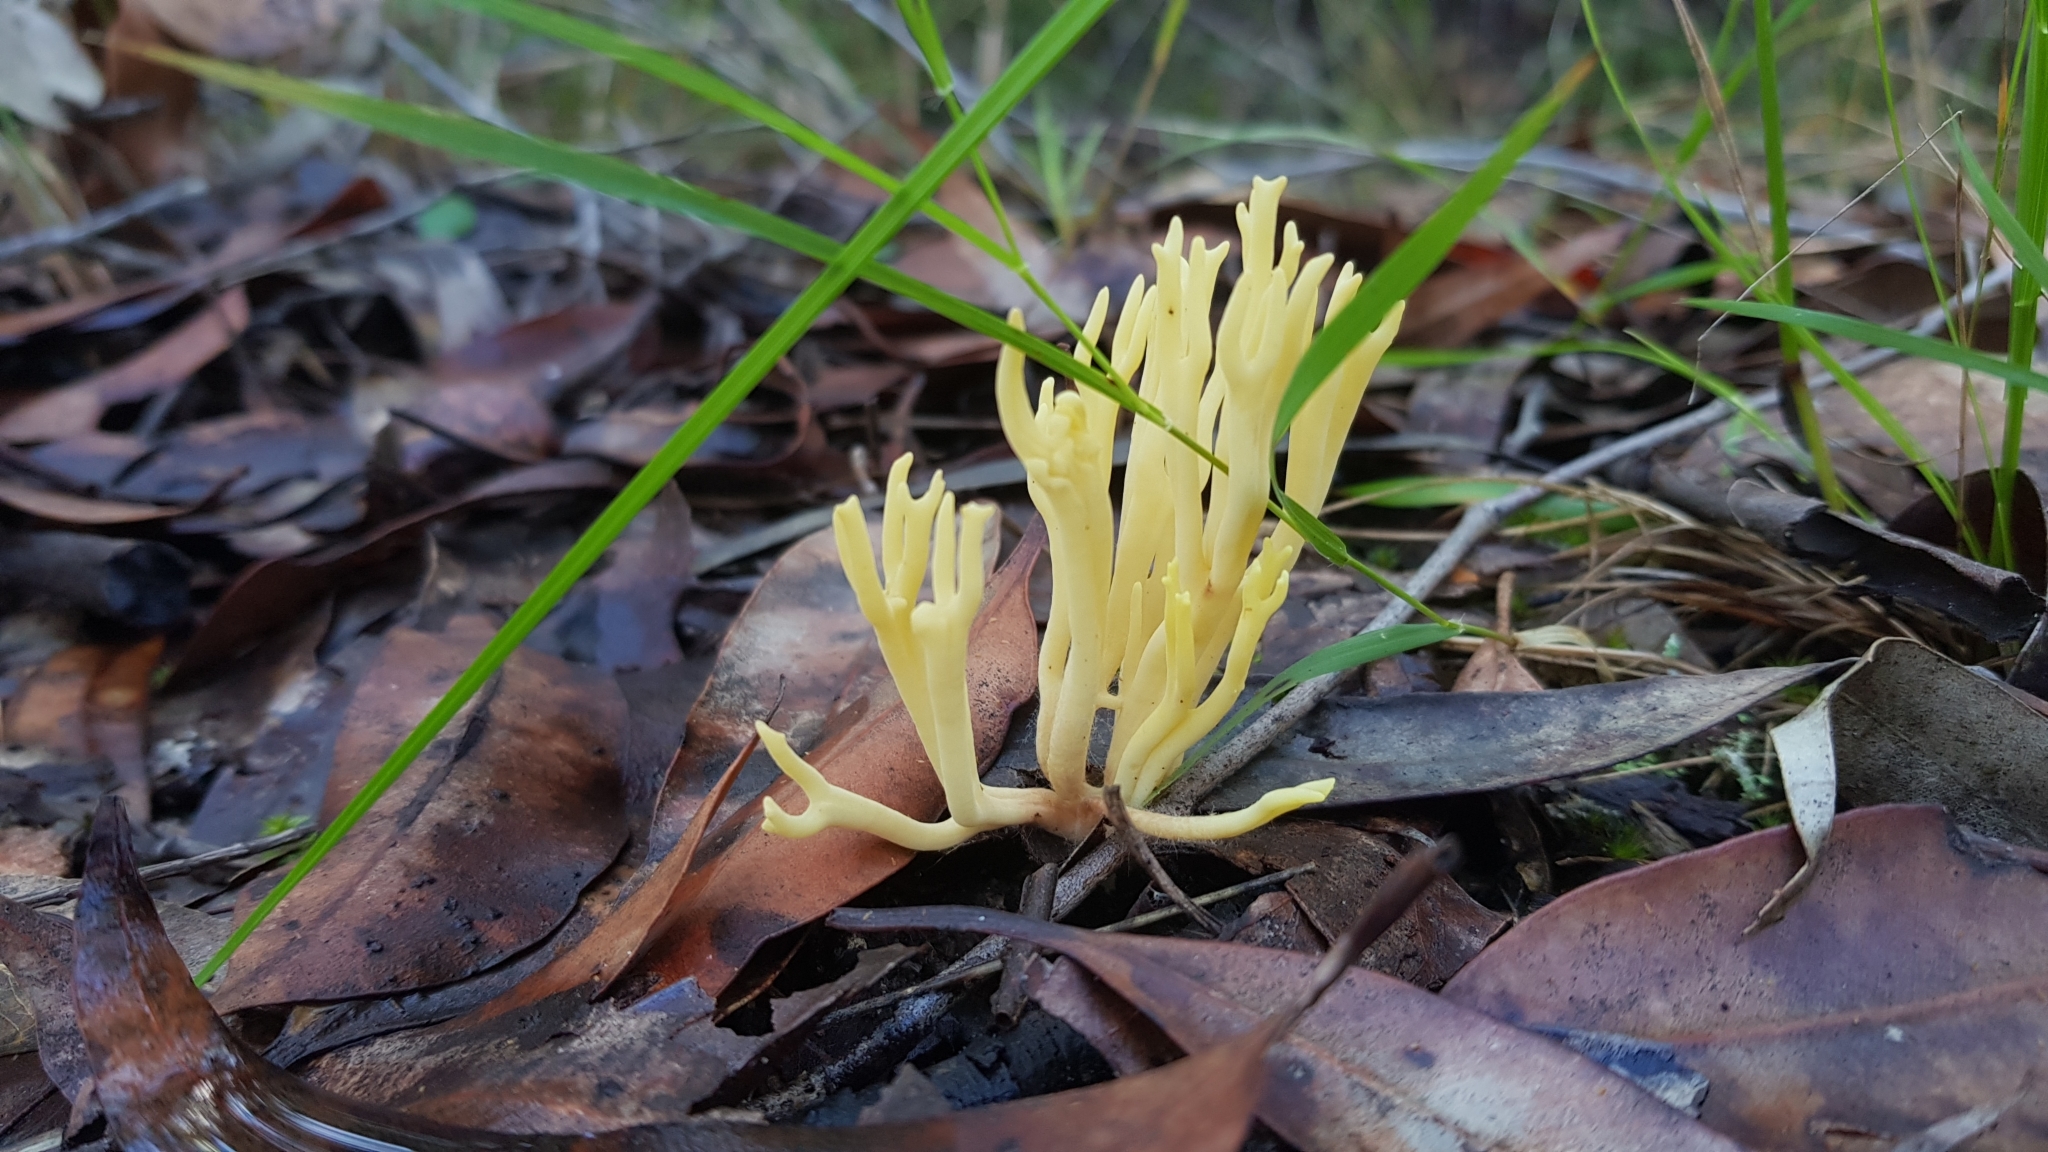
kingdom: Fungi
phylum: Basidiomycota
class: Agaricomycetes
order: Gomphales
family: Gomphaceae
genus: Ramaria
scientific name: Ramaria lorithamnus
